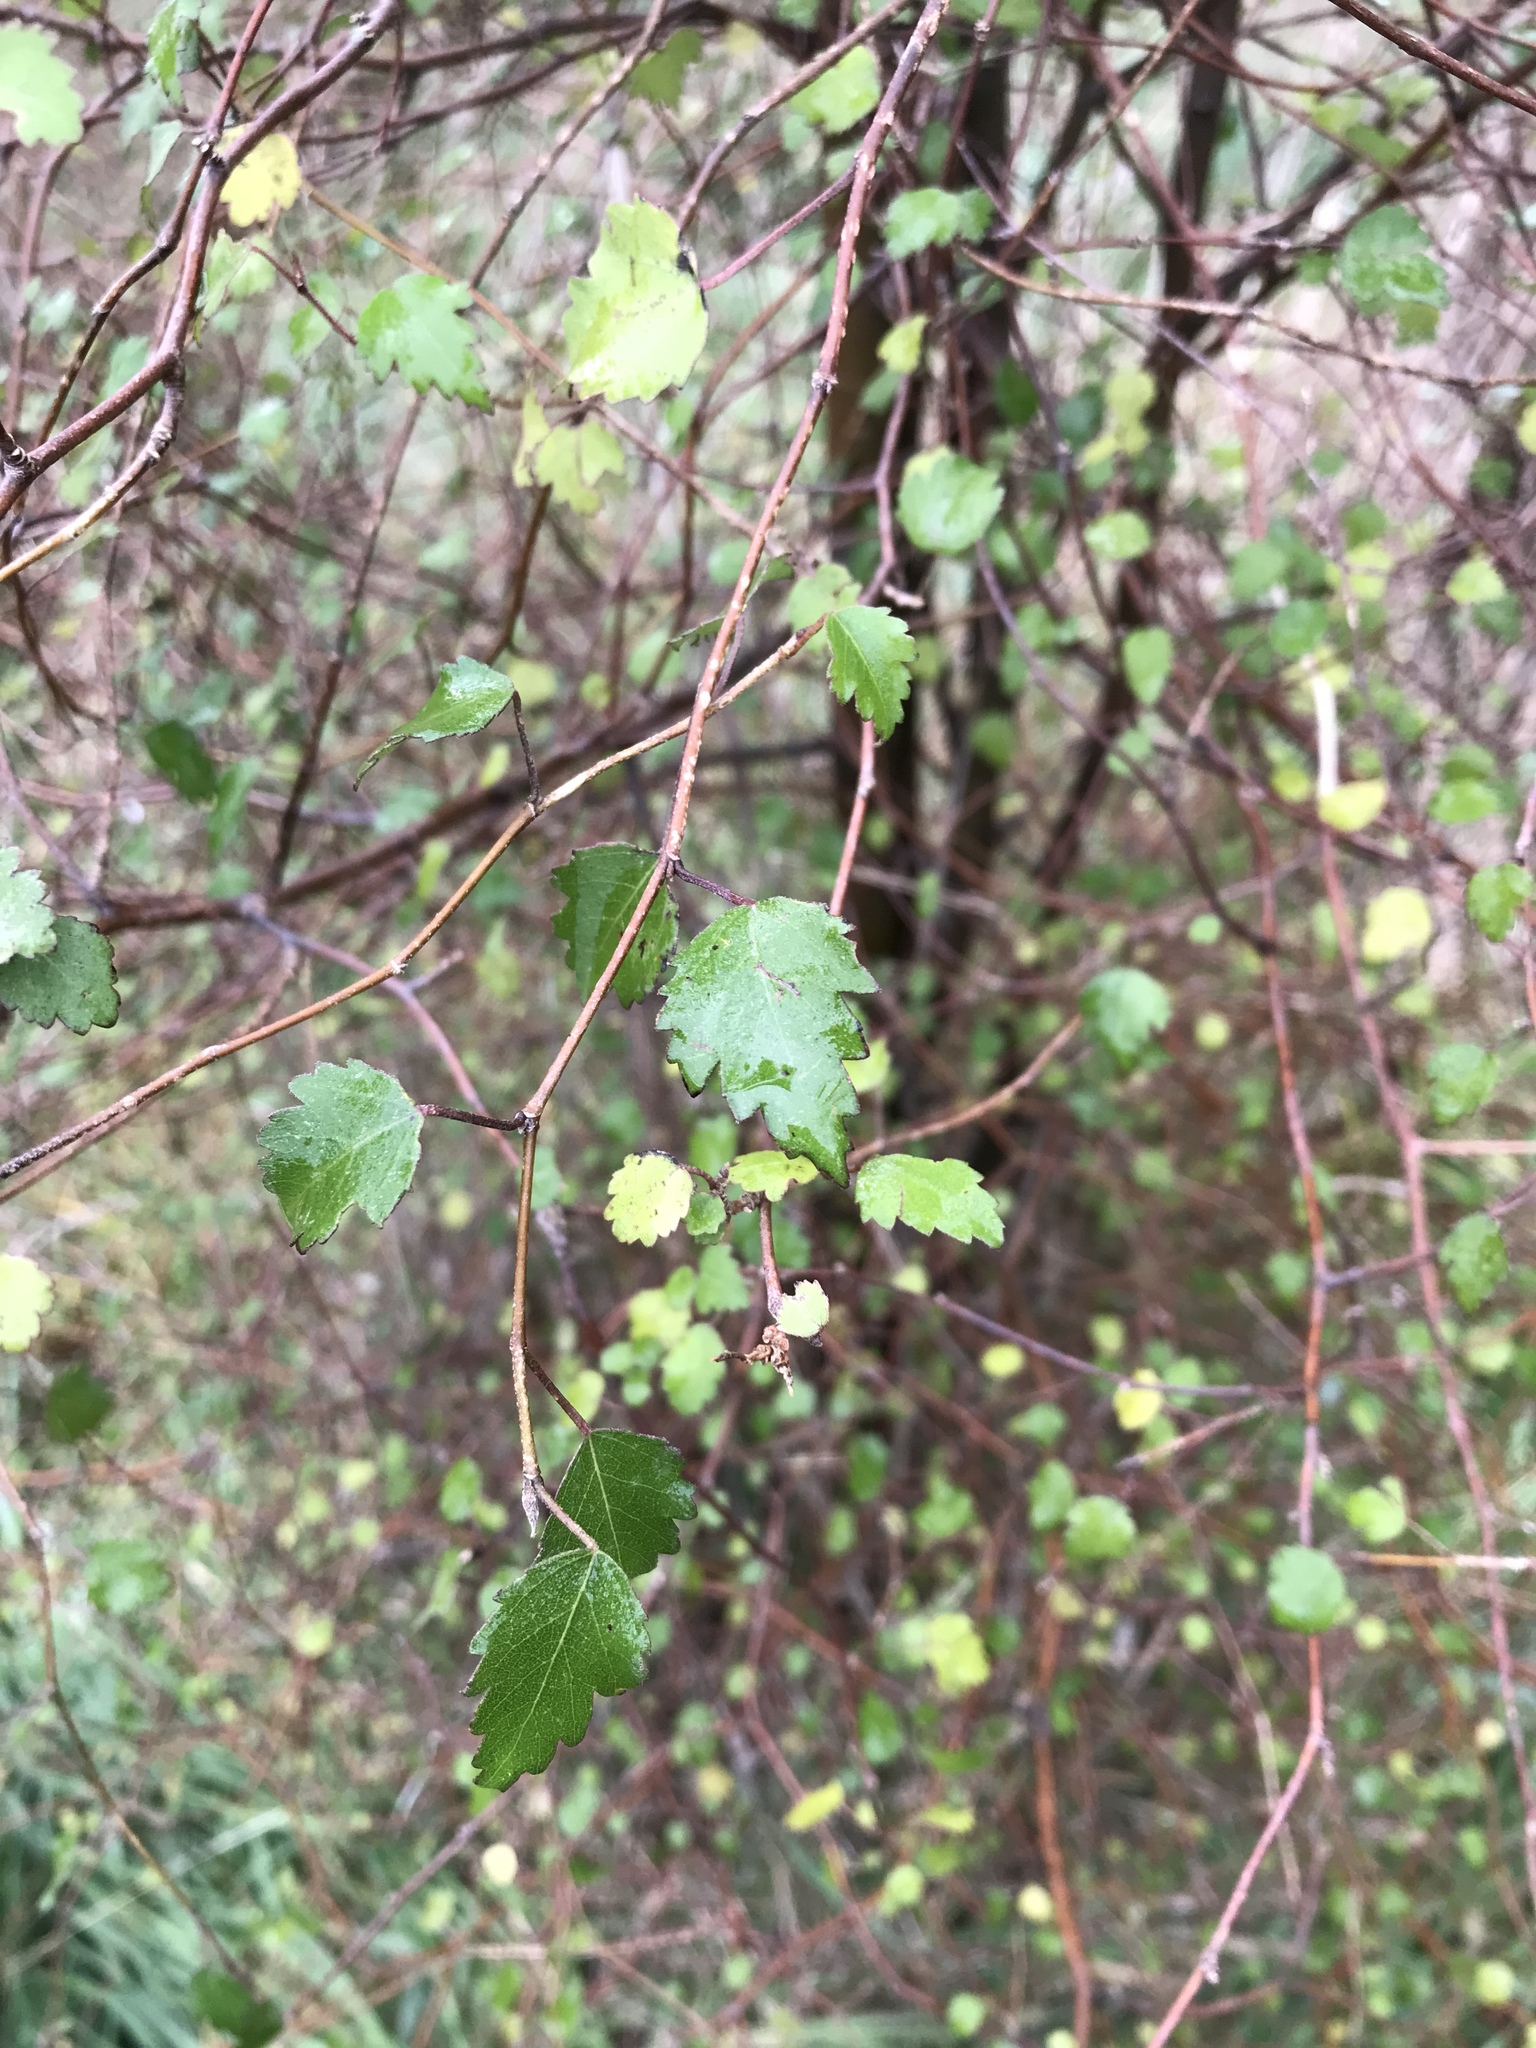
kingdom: Plantae
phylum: Tracheophyta
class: Magnoliopsida
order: Malvales
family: Malvaceae
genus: Plagianthus
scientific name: Plagianthus regius
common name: Manatu
